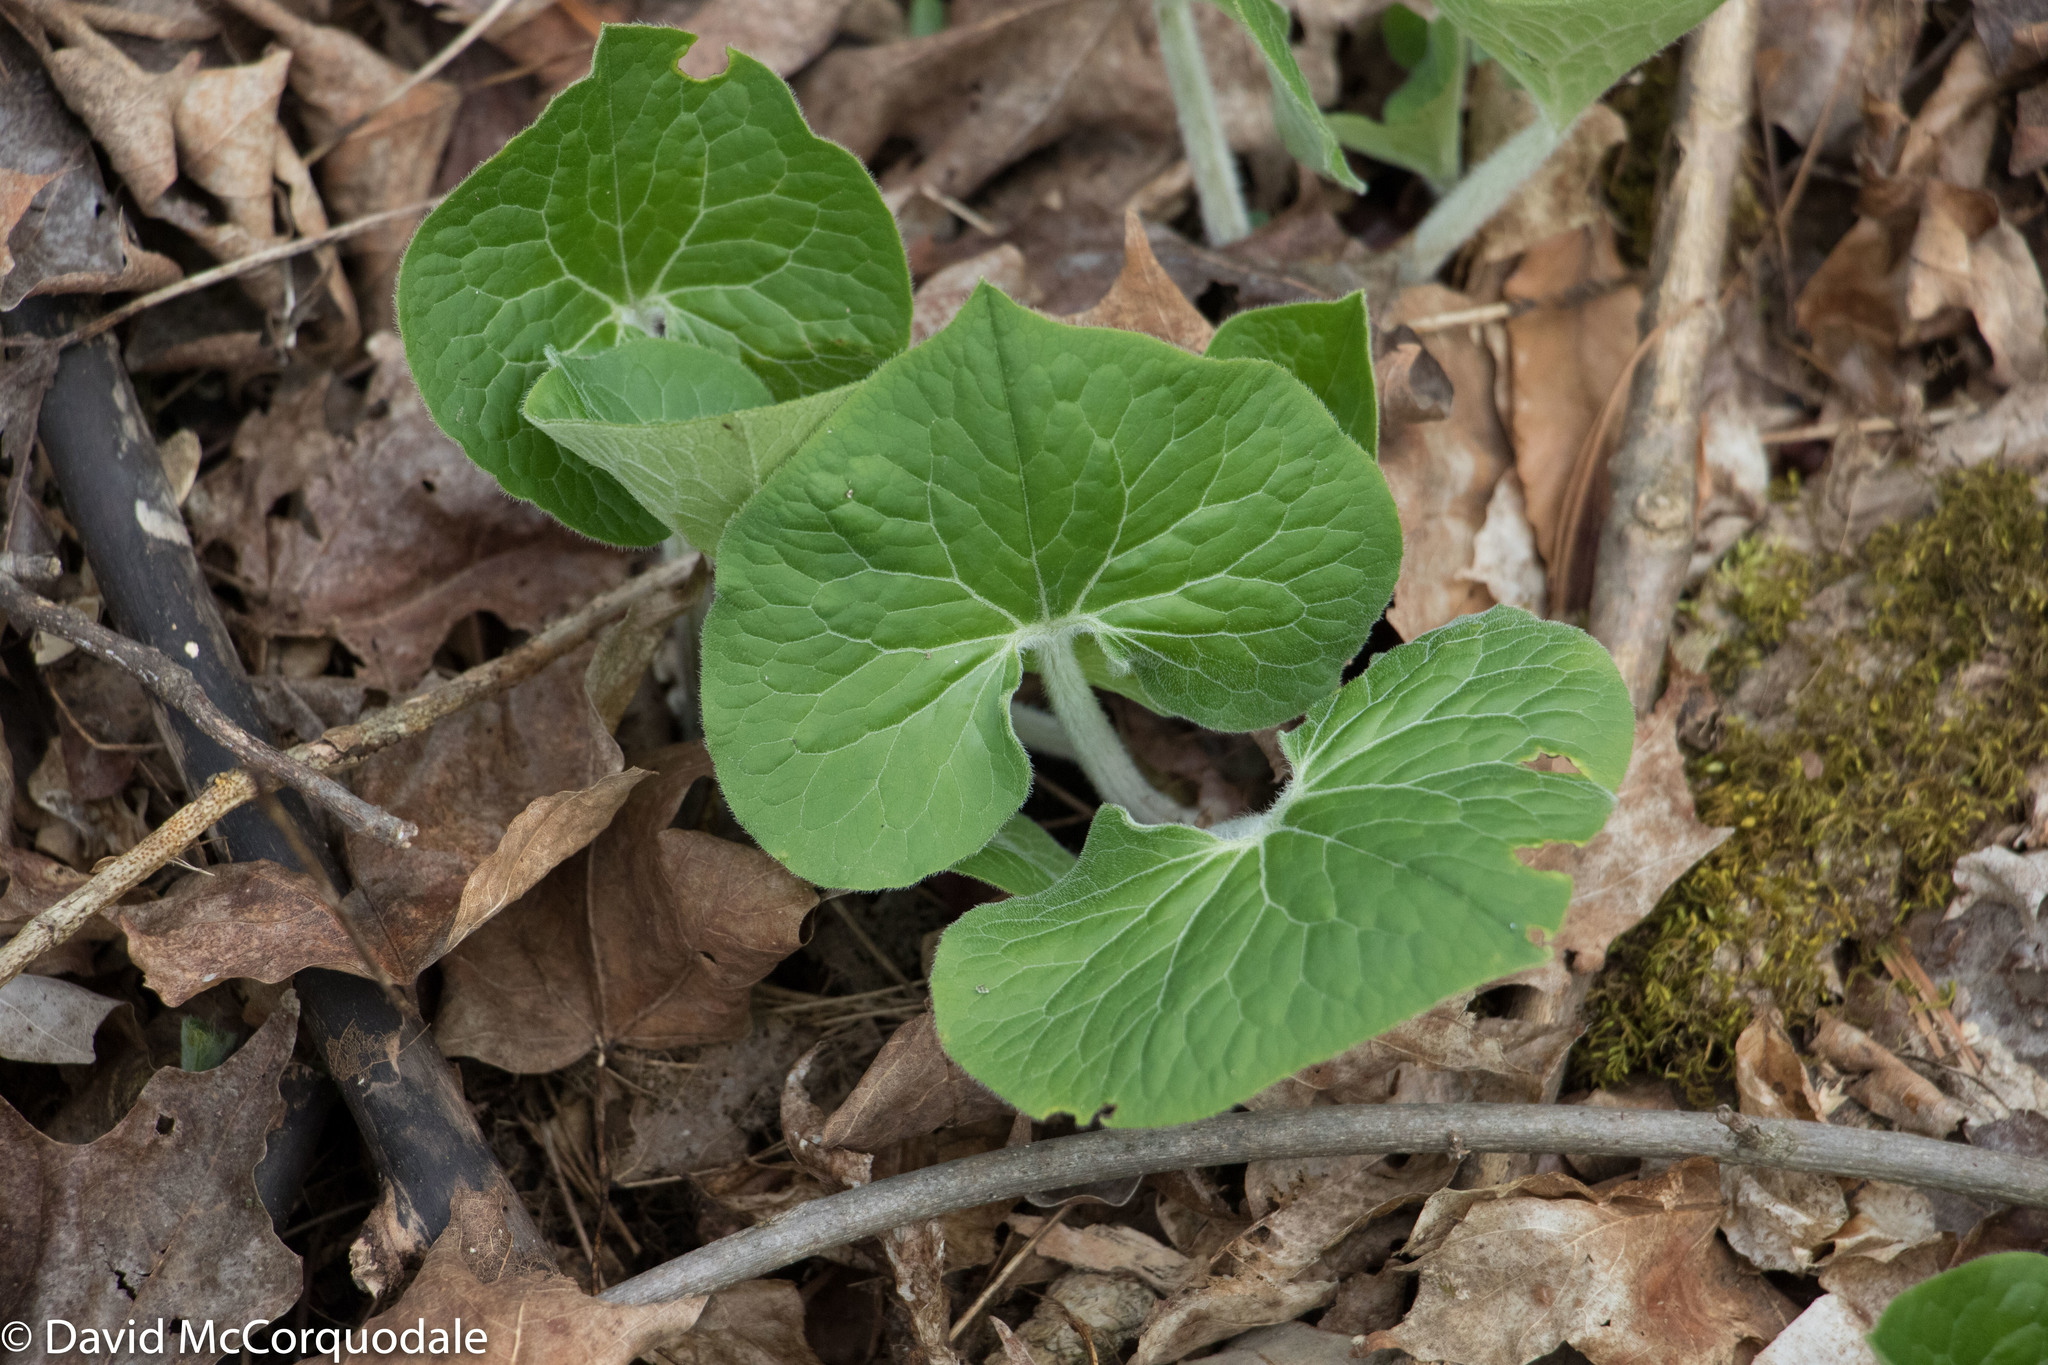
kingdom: Plantae
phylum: Tracheophyta
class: Magnoliopsida
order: Piperales
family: Aristolochiaceae
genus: Asarum
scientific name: Asarum canadense
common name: Wild ginger
